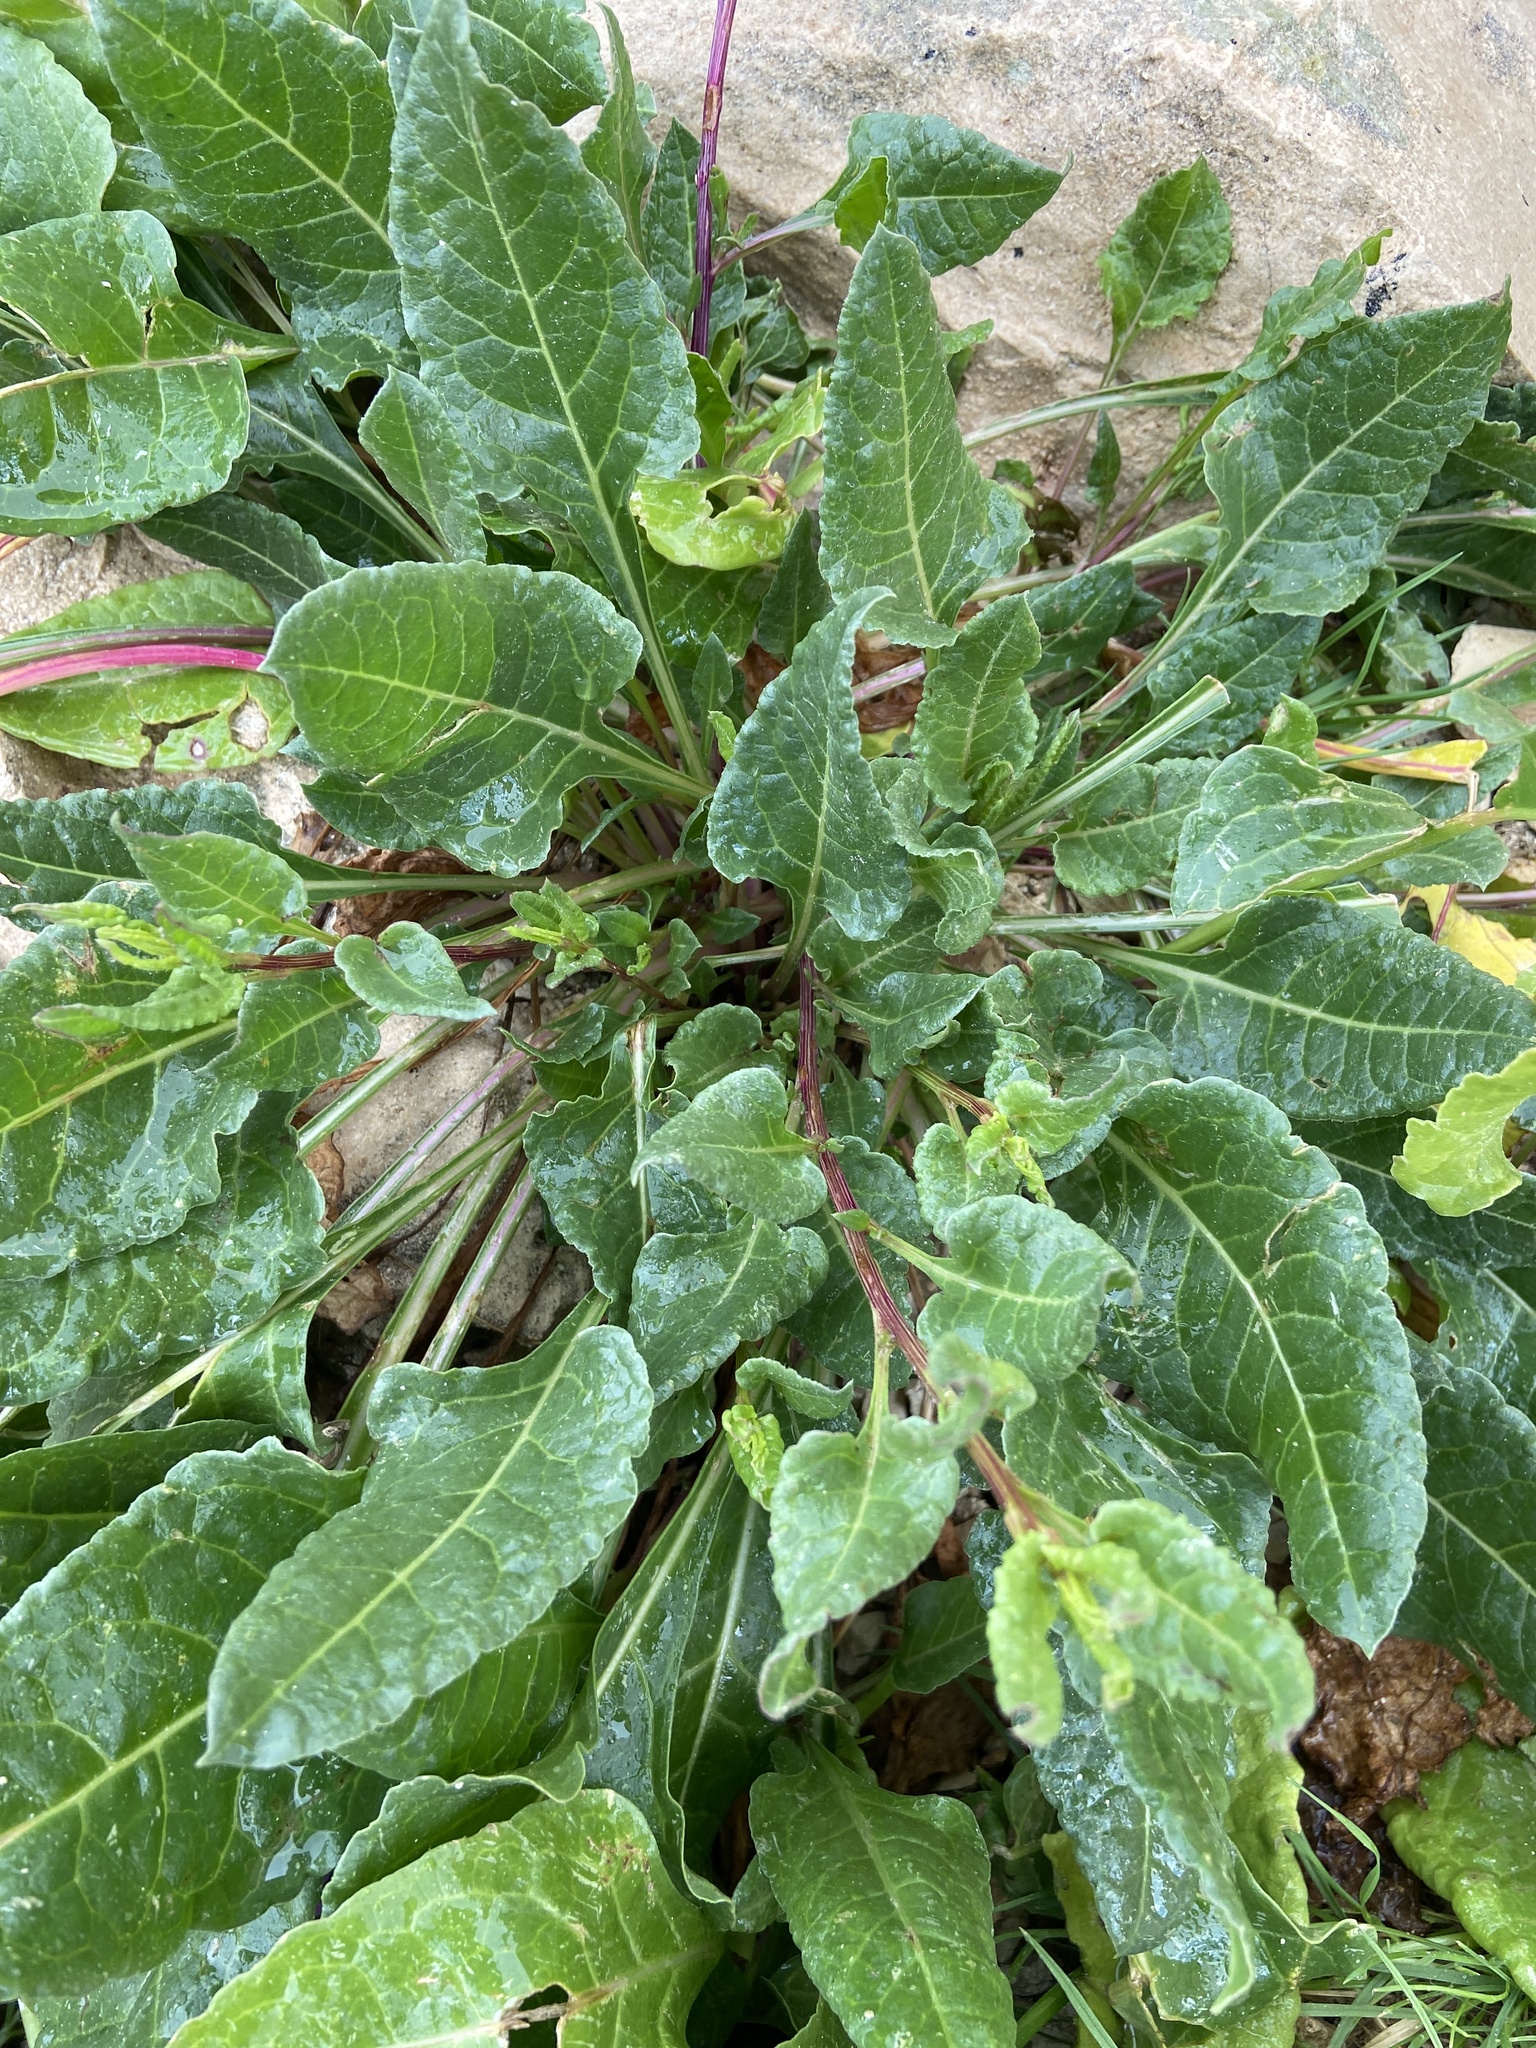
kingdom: Plantae
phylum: Tracheophyta
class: Magnoliopsida
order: Caryophyllales
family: Amaranthaceae
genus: Beta
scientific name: Beta vulgaris
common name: Beet
